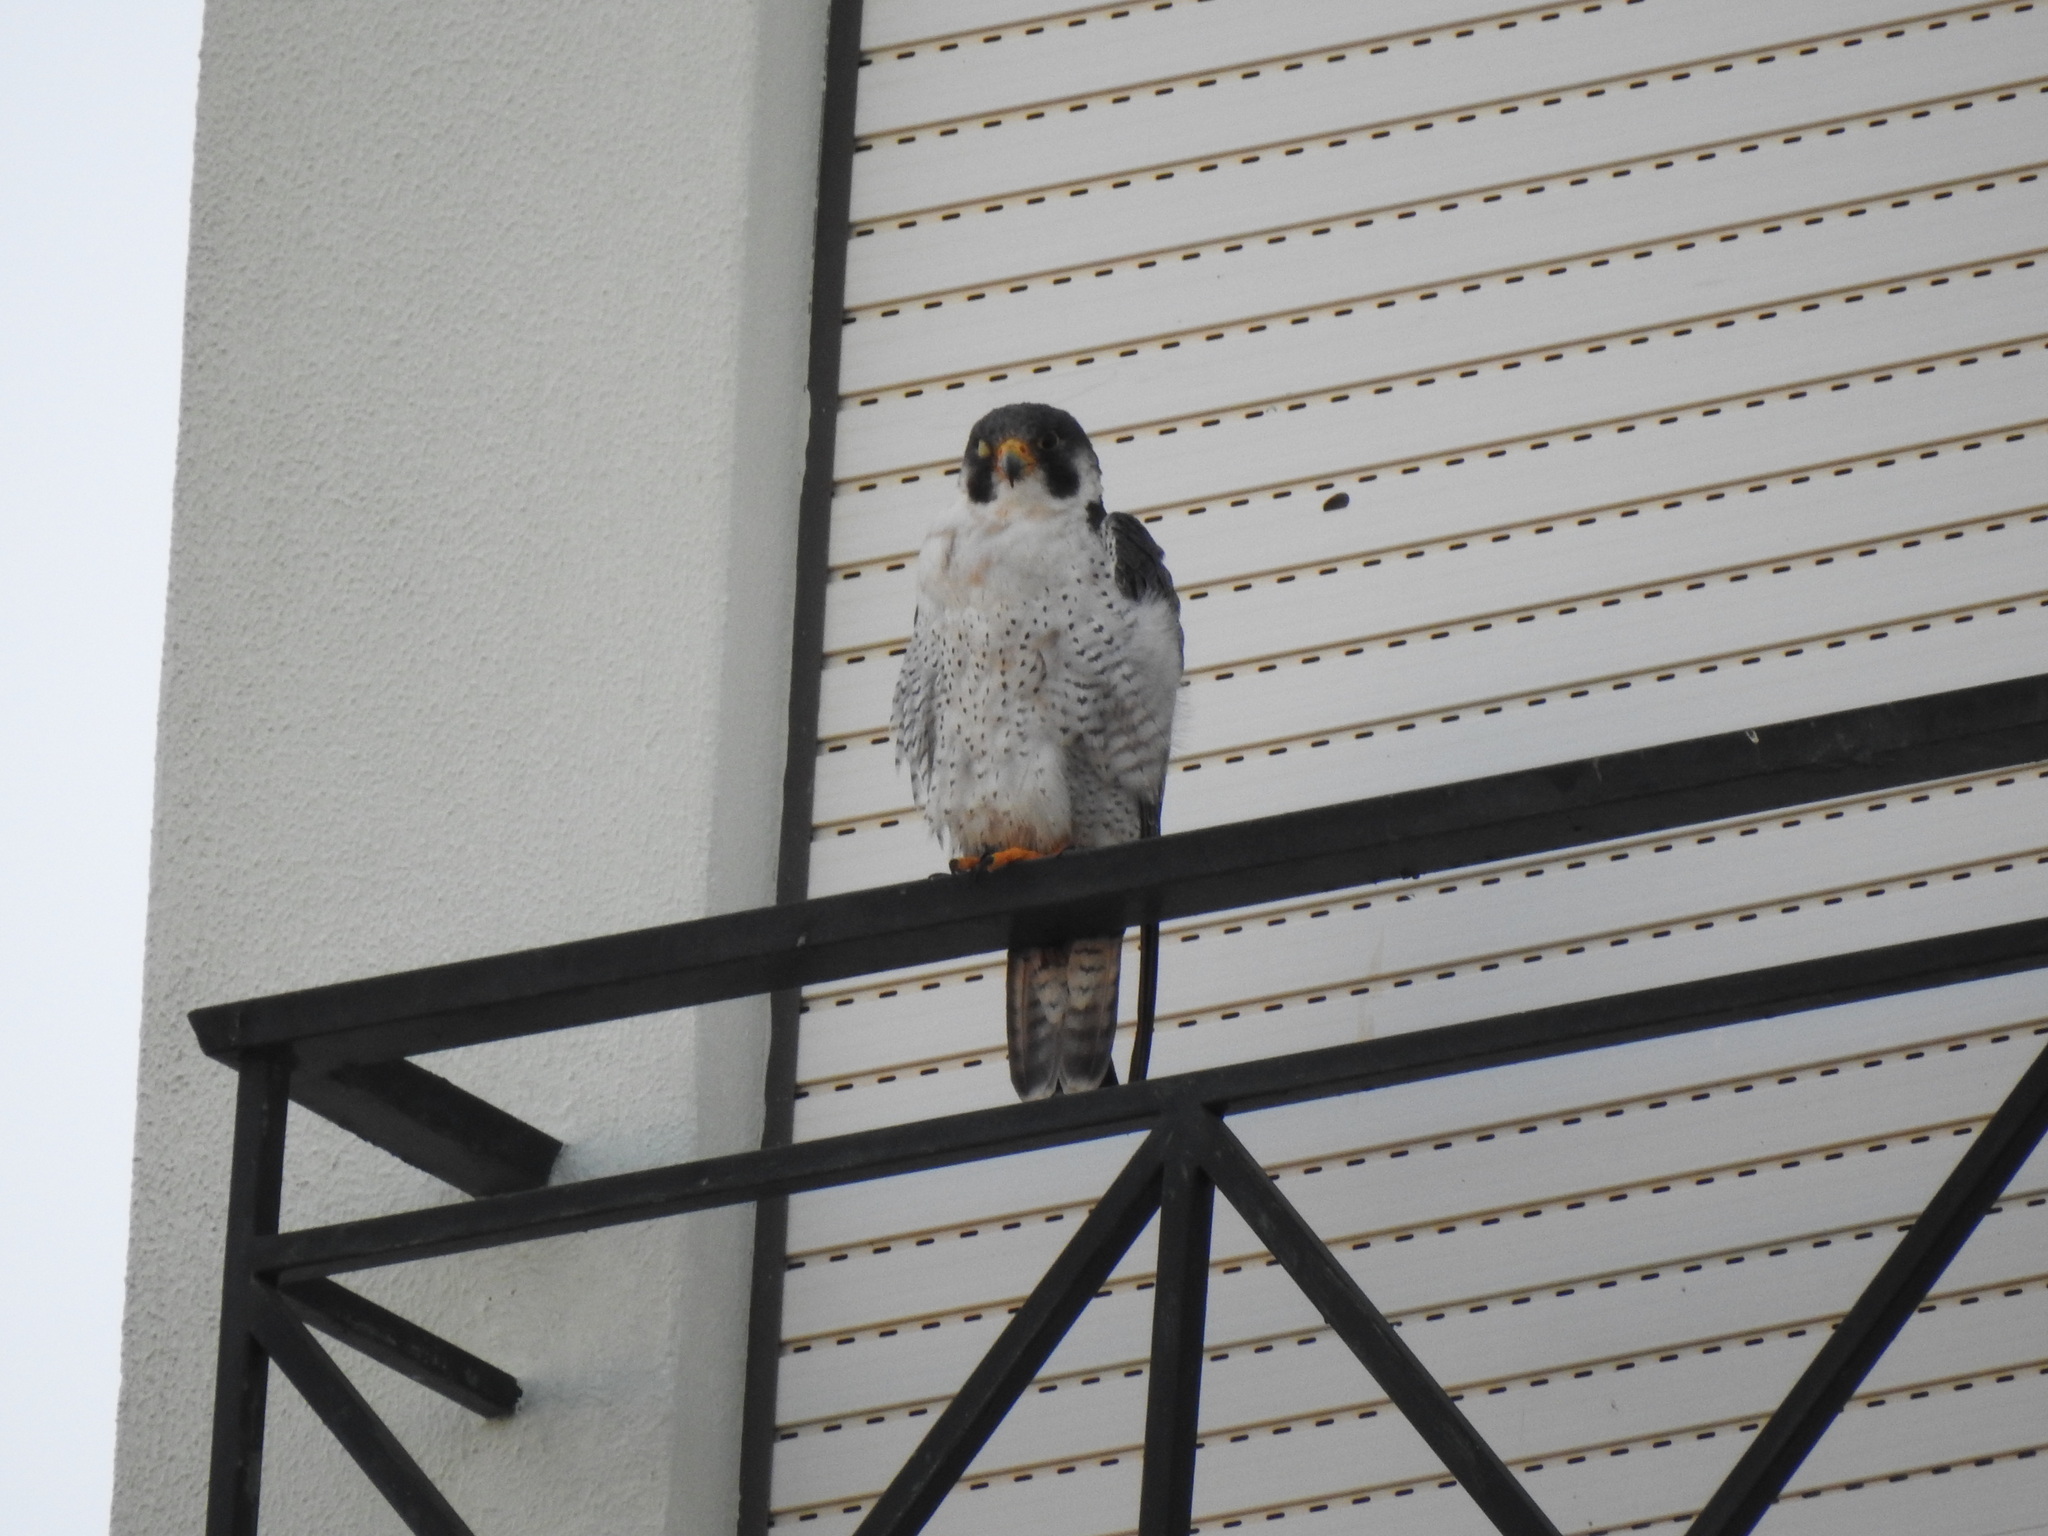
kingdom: Animalia
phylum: Chordata
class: Aves
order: Falconiformes
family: Falconidae
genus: Falco
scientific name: Falco peregrinus
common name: Peregrine falcon
